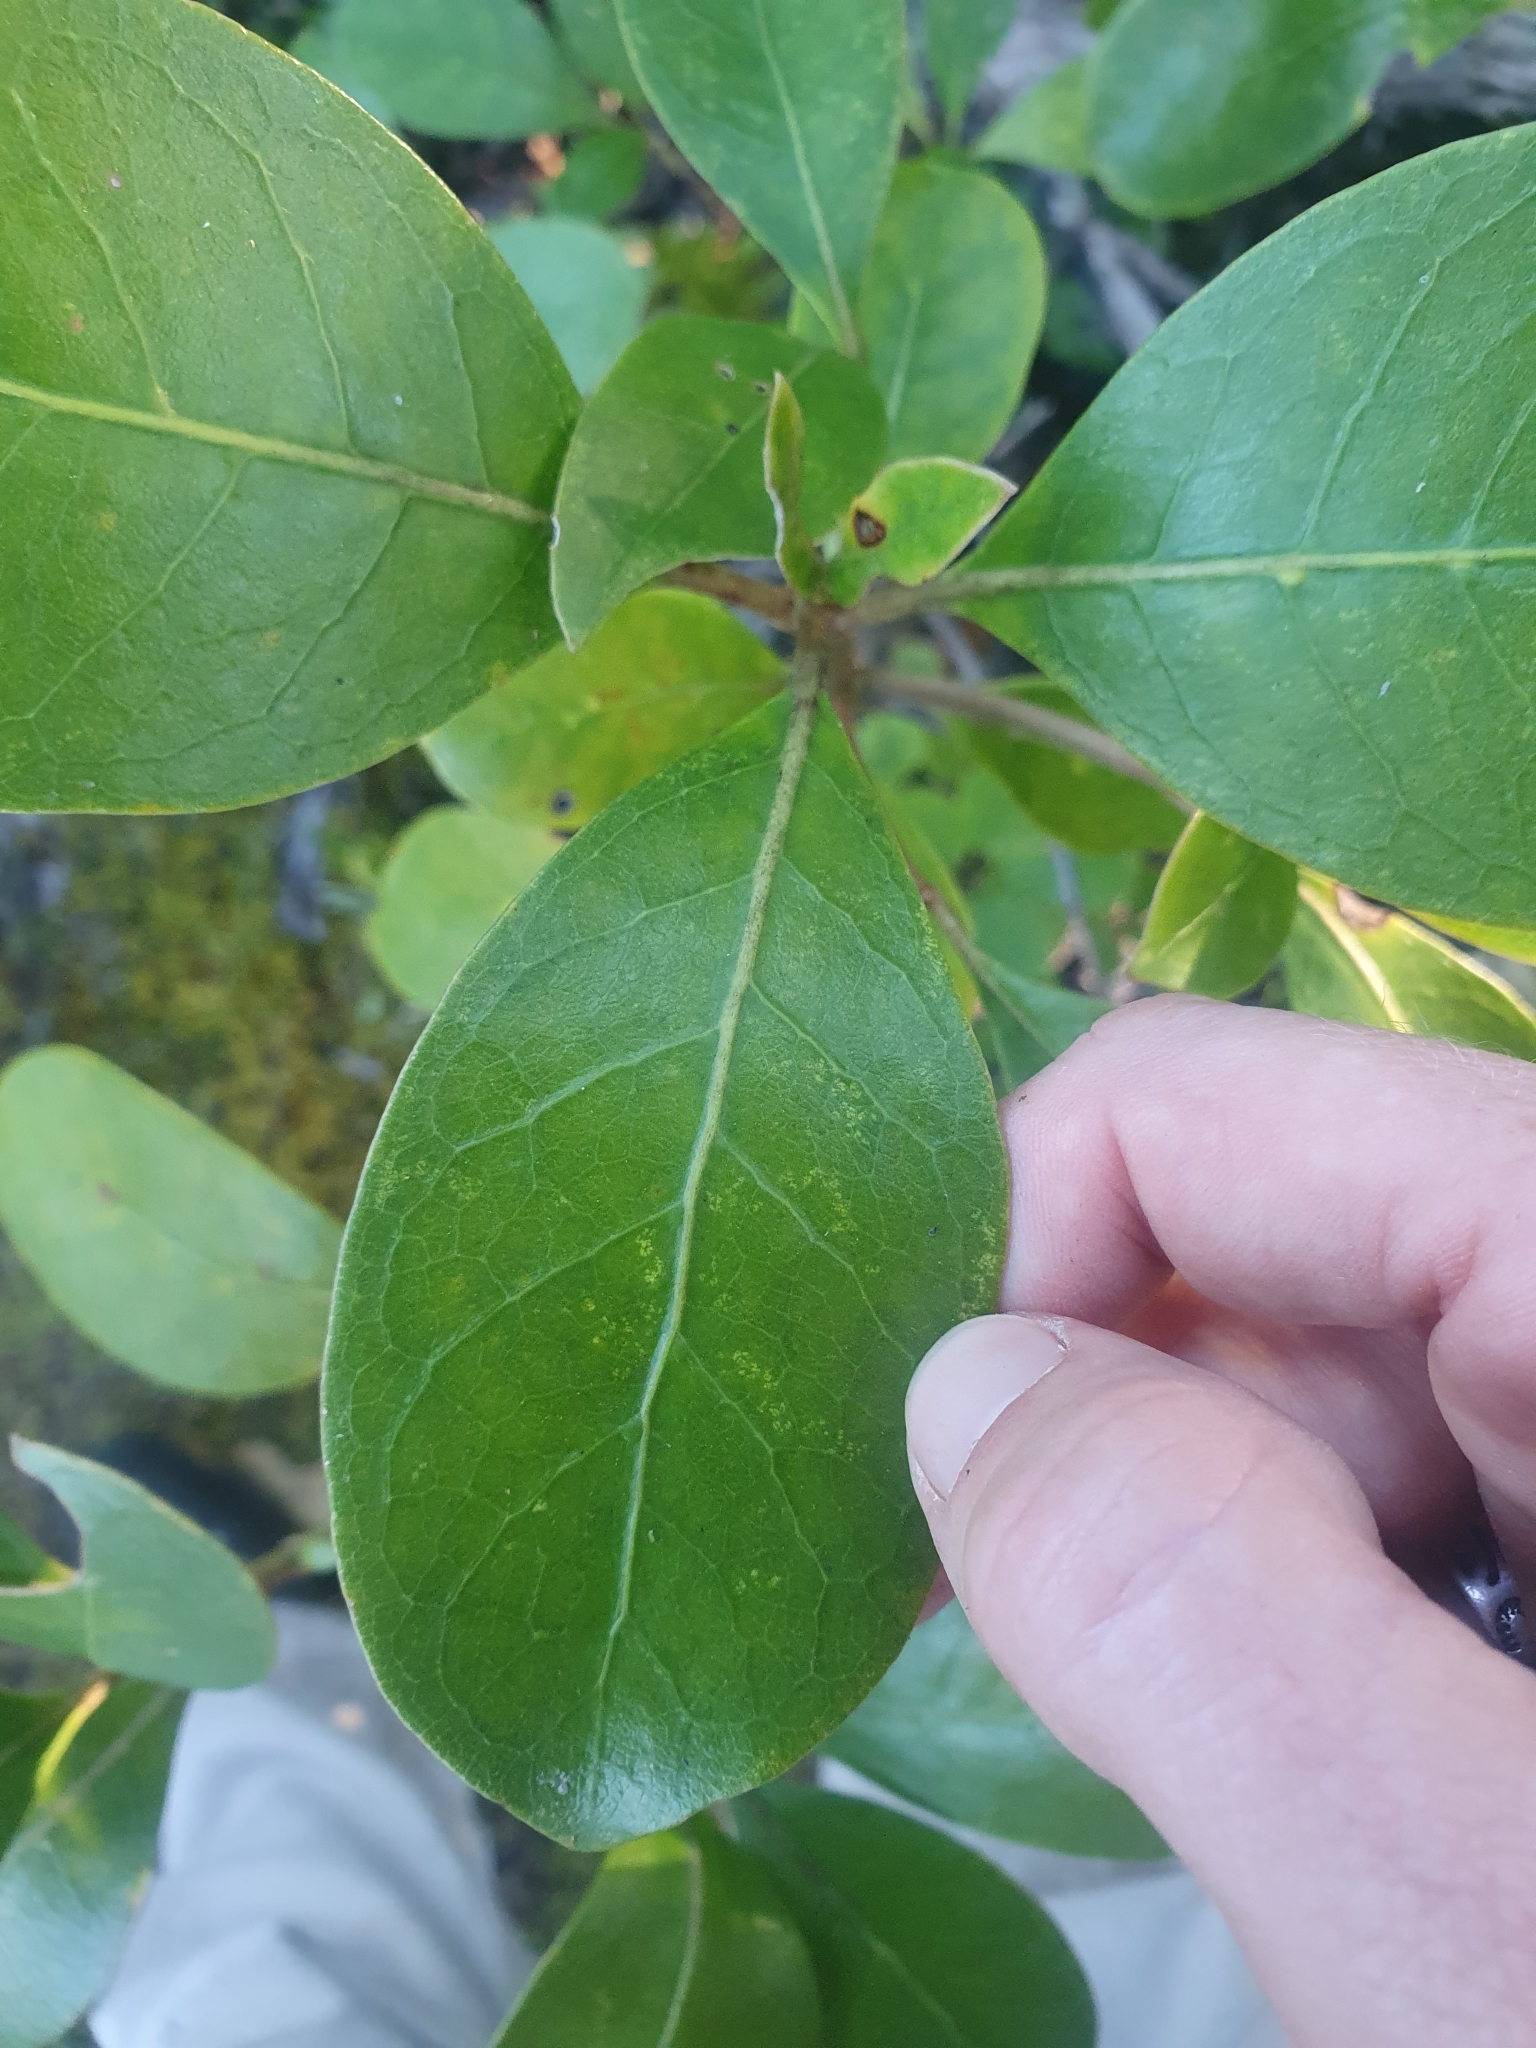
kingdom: Plantae
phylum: Tracheophyta
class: Magnoliopsida
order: Gentianales
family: Rubiaceae
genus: Coprosma
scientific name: Coprosma lucida
